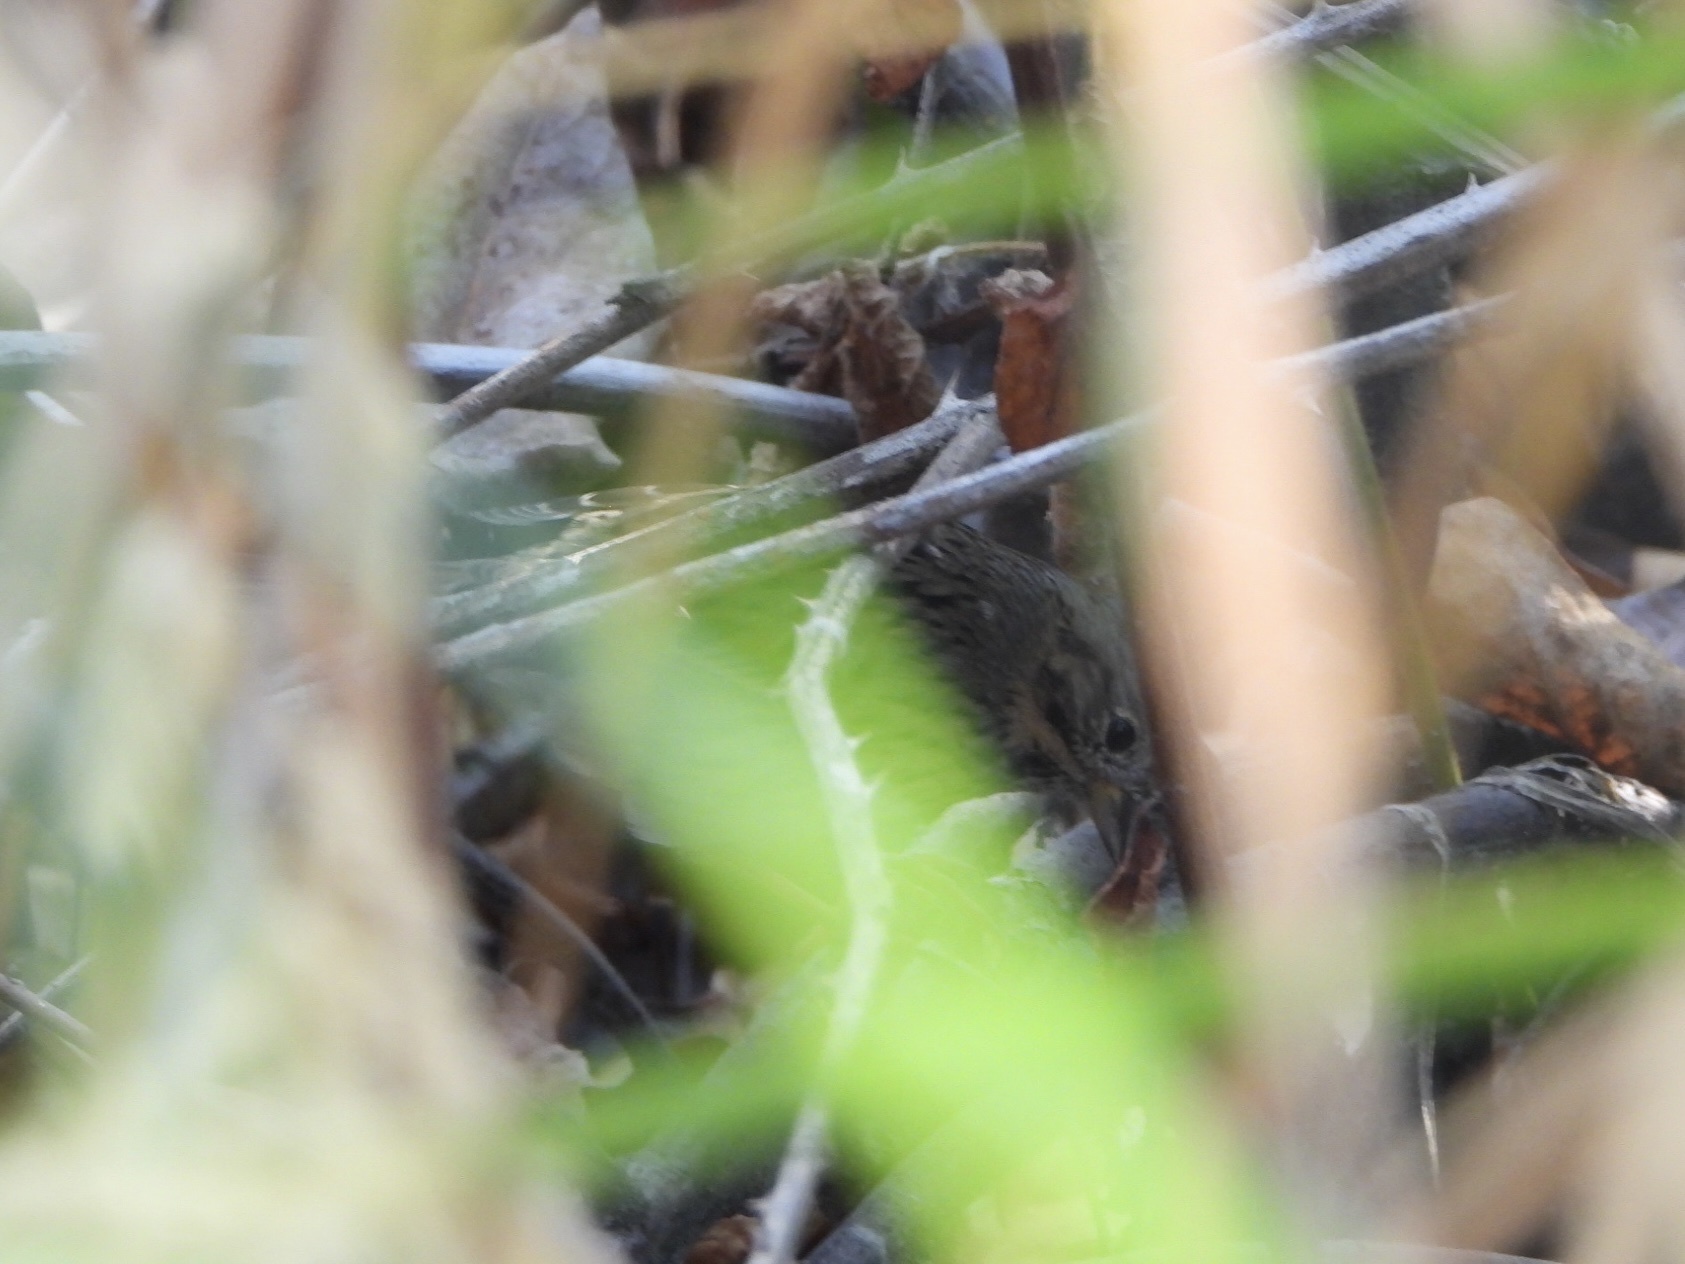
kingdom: Animalia
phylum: Chordata
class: Aves
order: Passeriformes
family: Passerellidae
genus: Melospiza
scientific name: Melospiza lincolnii
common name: Lincoln's sparrow
